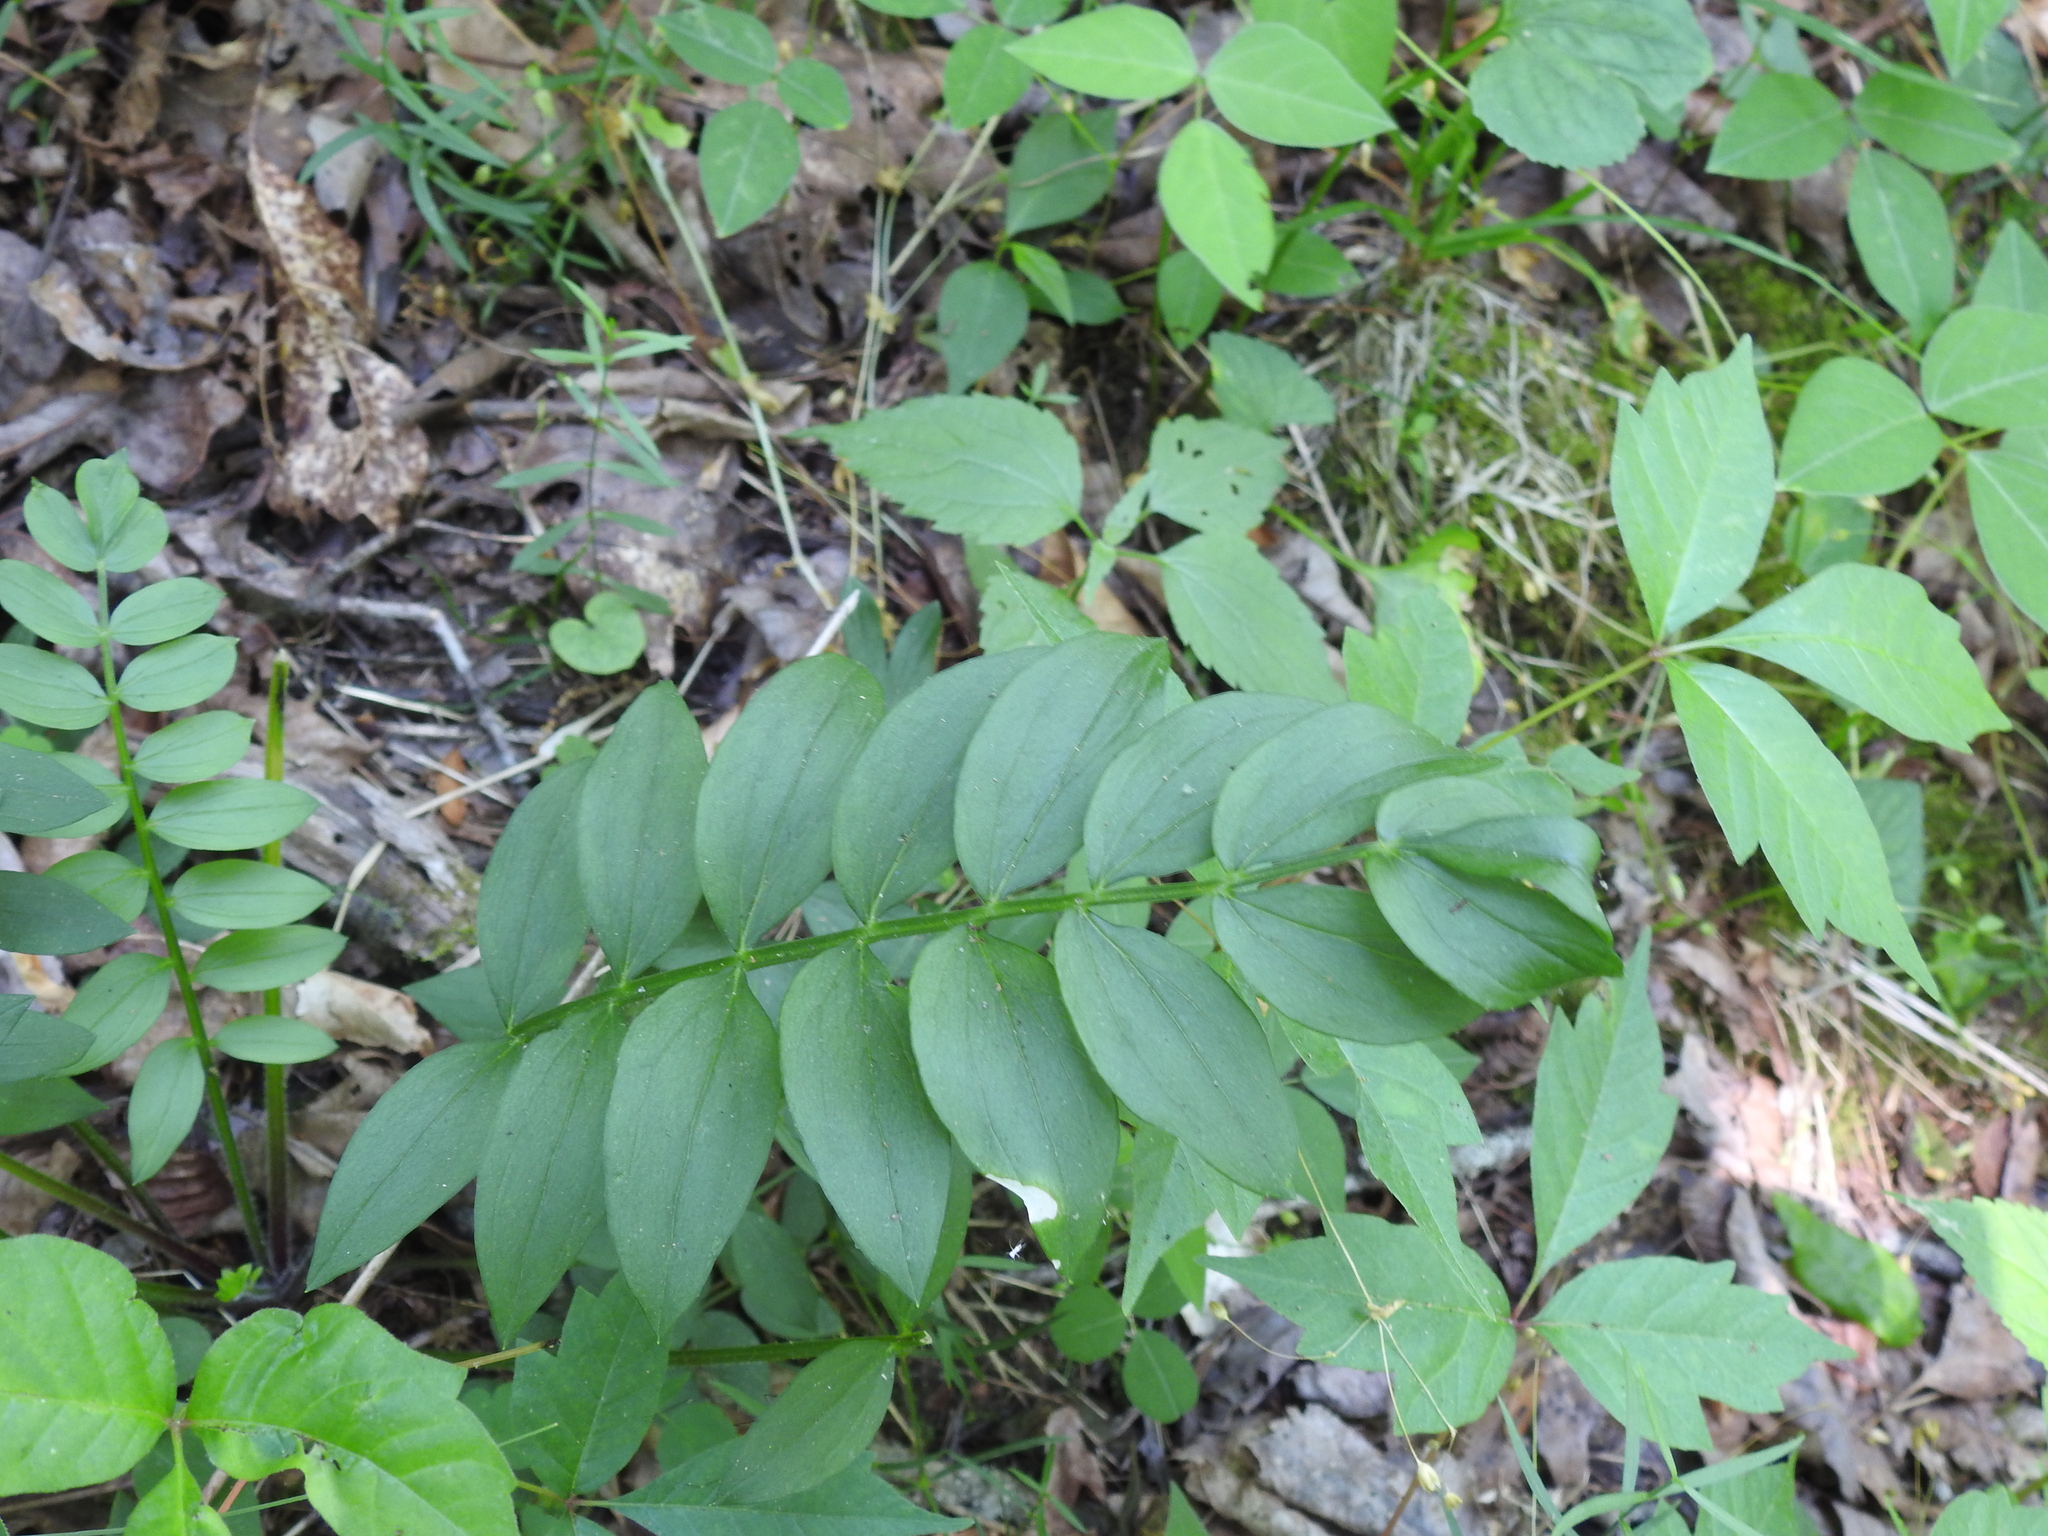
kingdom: Plantae
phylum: Tracheophyta
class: Magnoliopsida
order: Ericales
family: Polemoniaceae
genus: Polemonium
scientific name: Polemonium reptans
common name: Creeping jacob's-ladder
